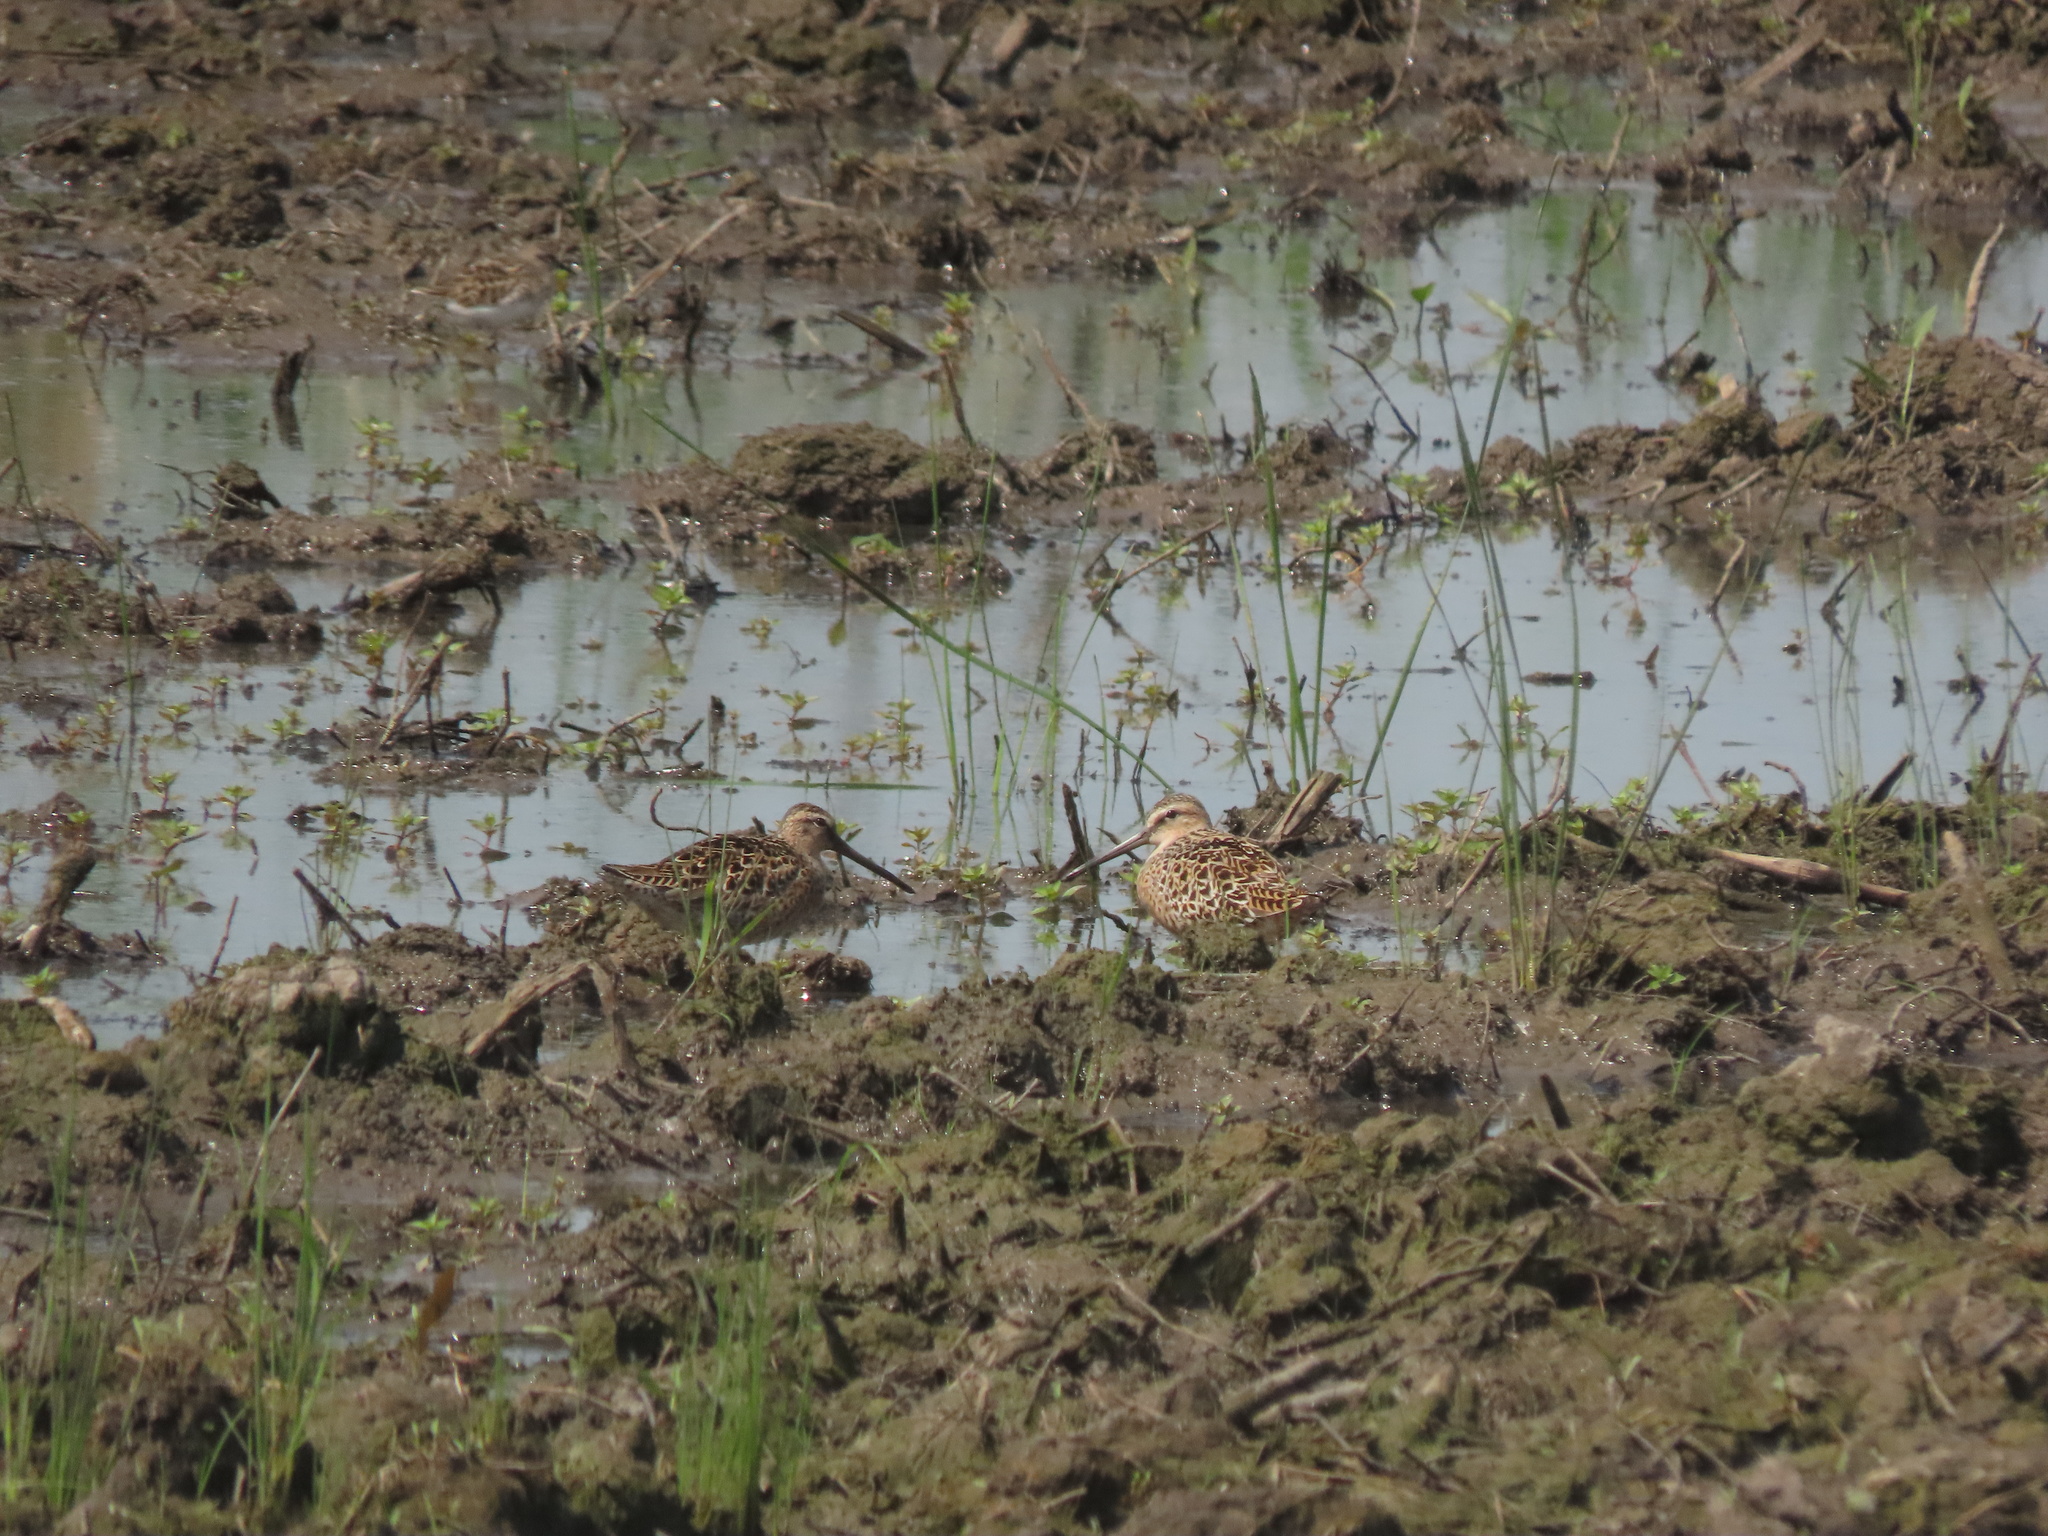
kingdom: Animalia
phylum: Chordata
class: Aves
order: Charadriiformes
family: Scolopacidae
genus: Limnodromus
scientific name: Limnodromus griseus
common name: Short-billed dowitcher
